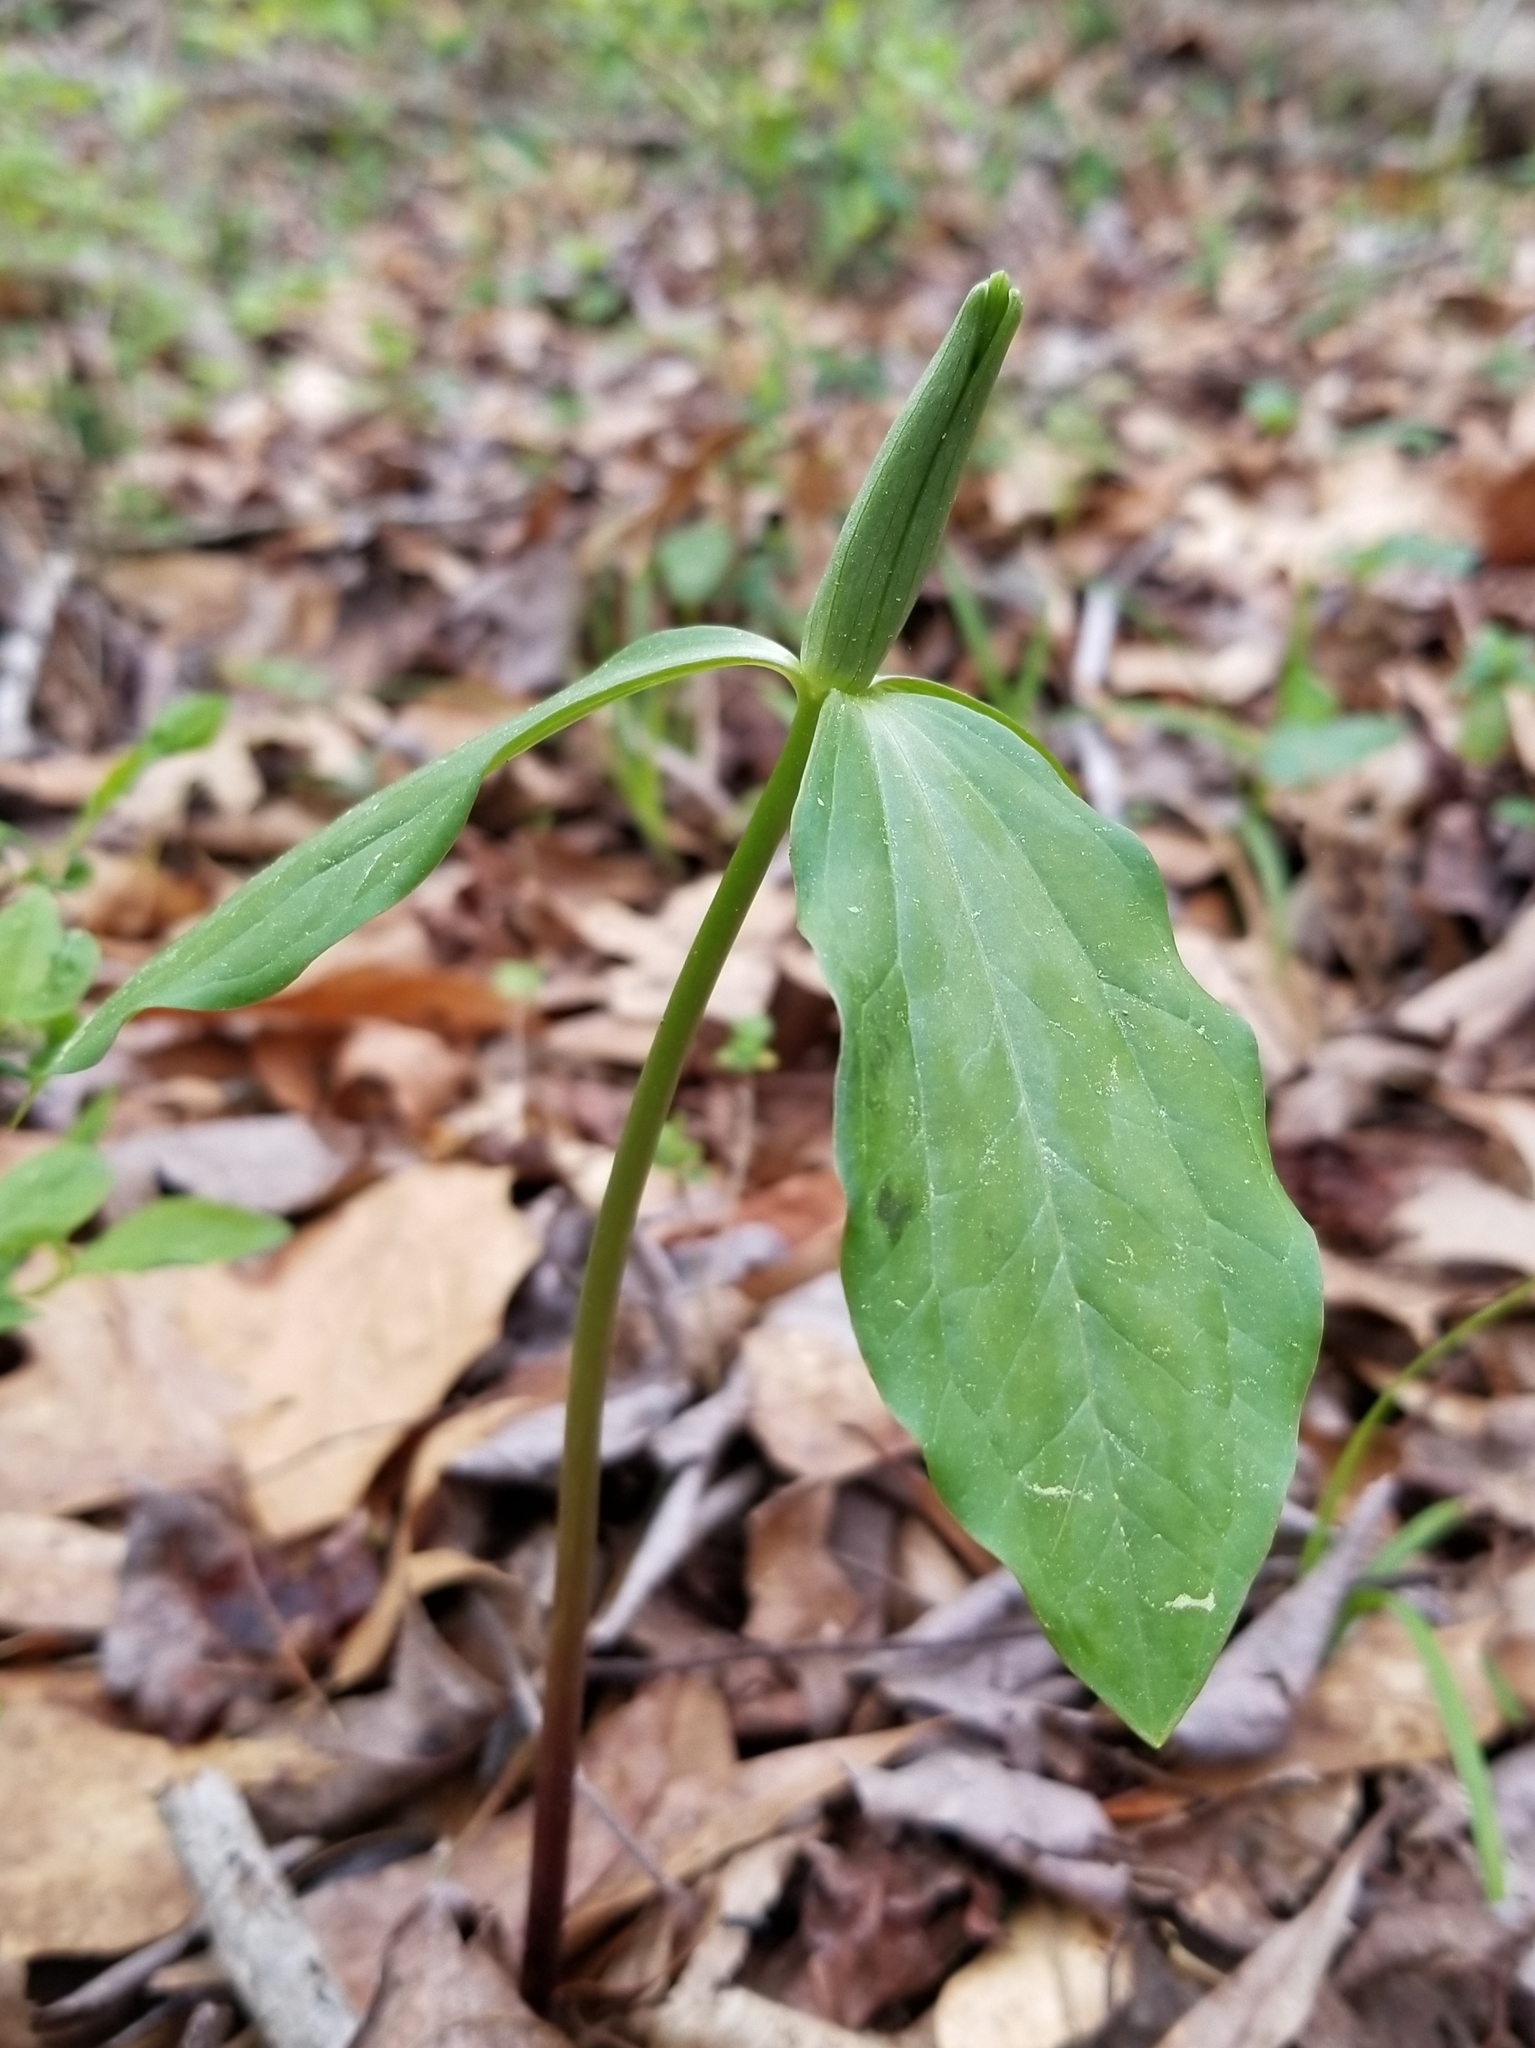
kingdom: Plantae
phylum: Tracheophyta
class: Liliopsida
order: Liliales
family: Melanthiaceae
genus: Trillium
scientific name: Trillium oostingii
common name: Wateree trillium
